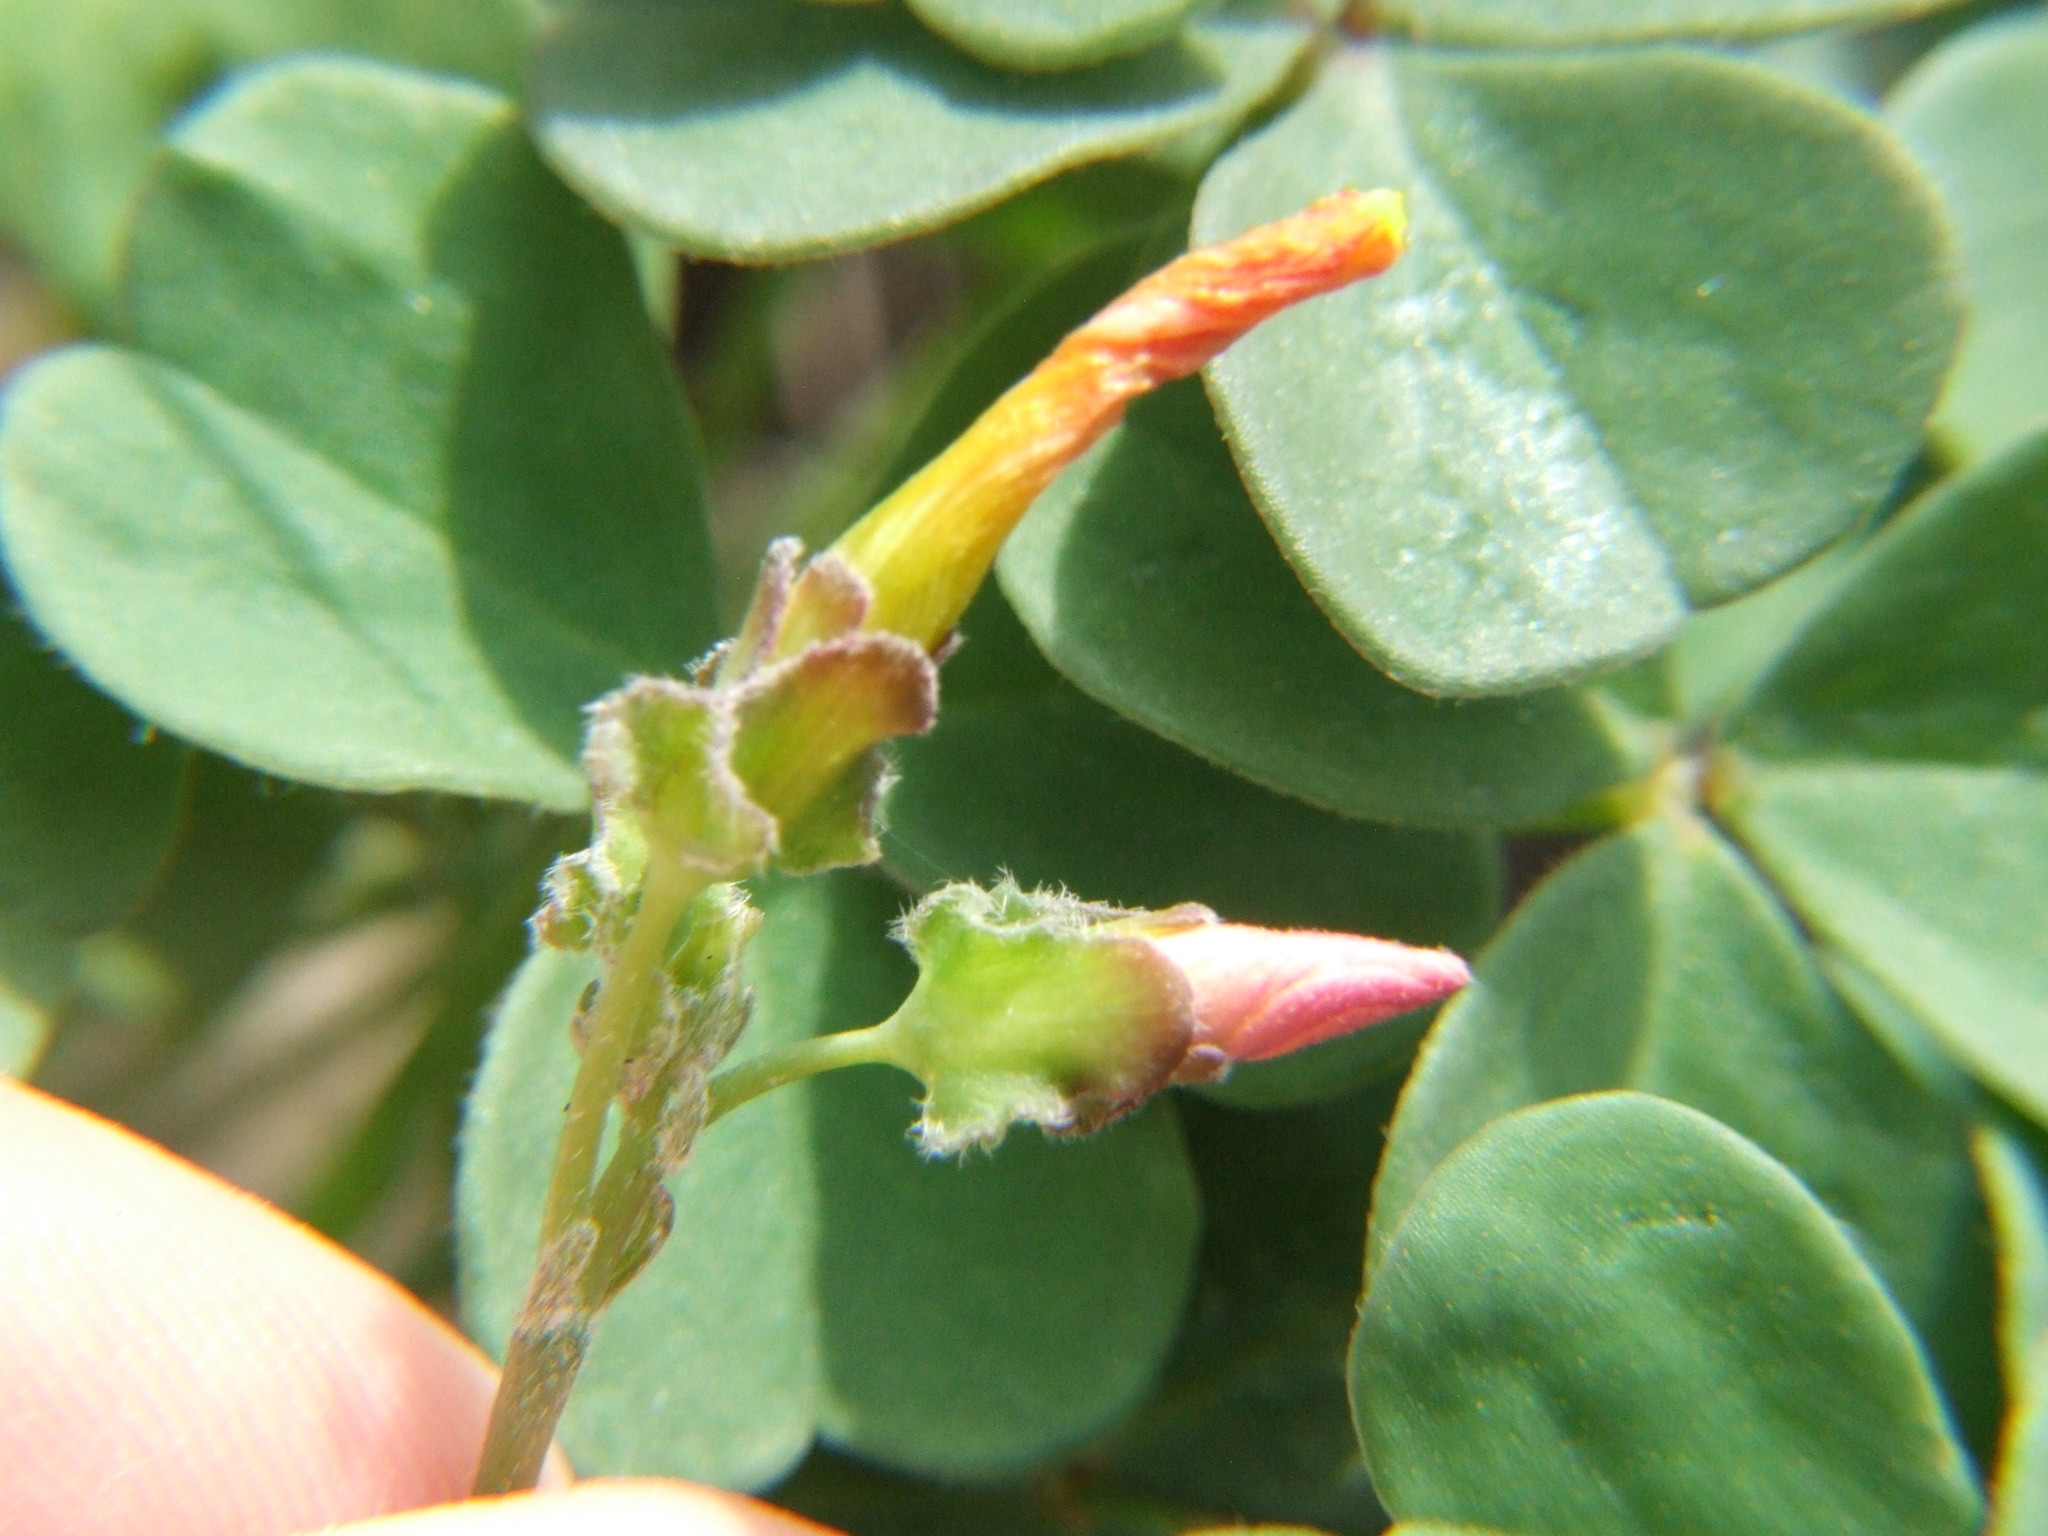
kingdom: Plantae
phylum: Tracheophyta
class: Magnoliopsida
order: Oxalidales
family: Oxalidaceae
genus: Oxalis
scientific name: Oxalis megalorrhiza
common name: Fleshy yellow-sorrel
